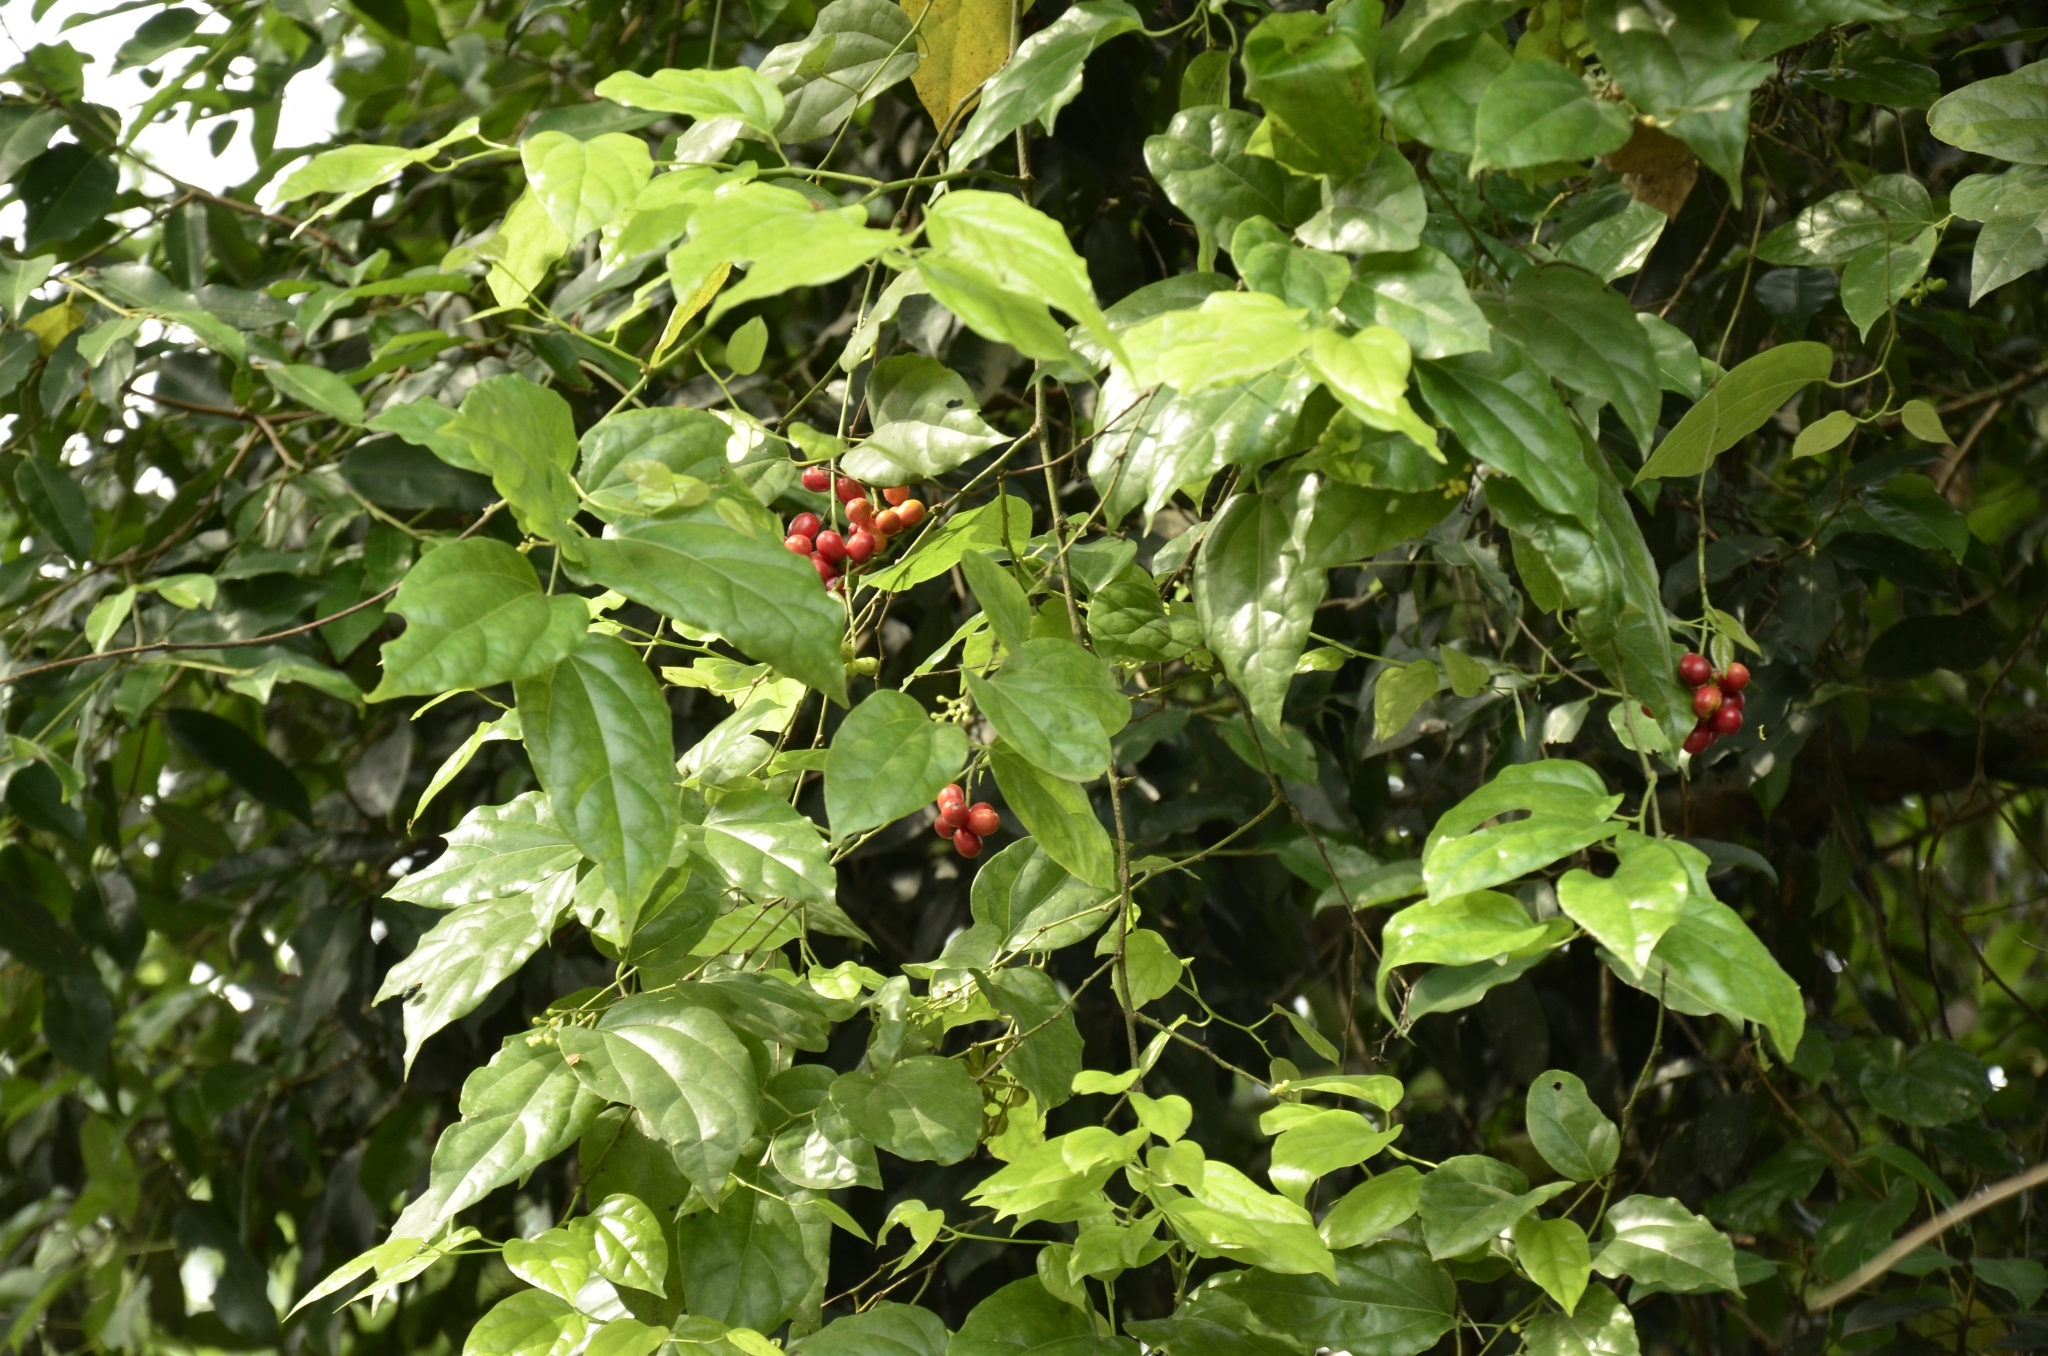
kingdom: Plantae
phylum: Tracheophyta
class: Magnoliopsida
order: Ranunculales
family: Menispermaceae
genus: Tiliacora
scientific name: Tiliacora acuminata
